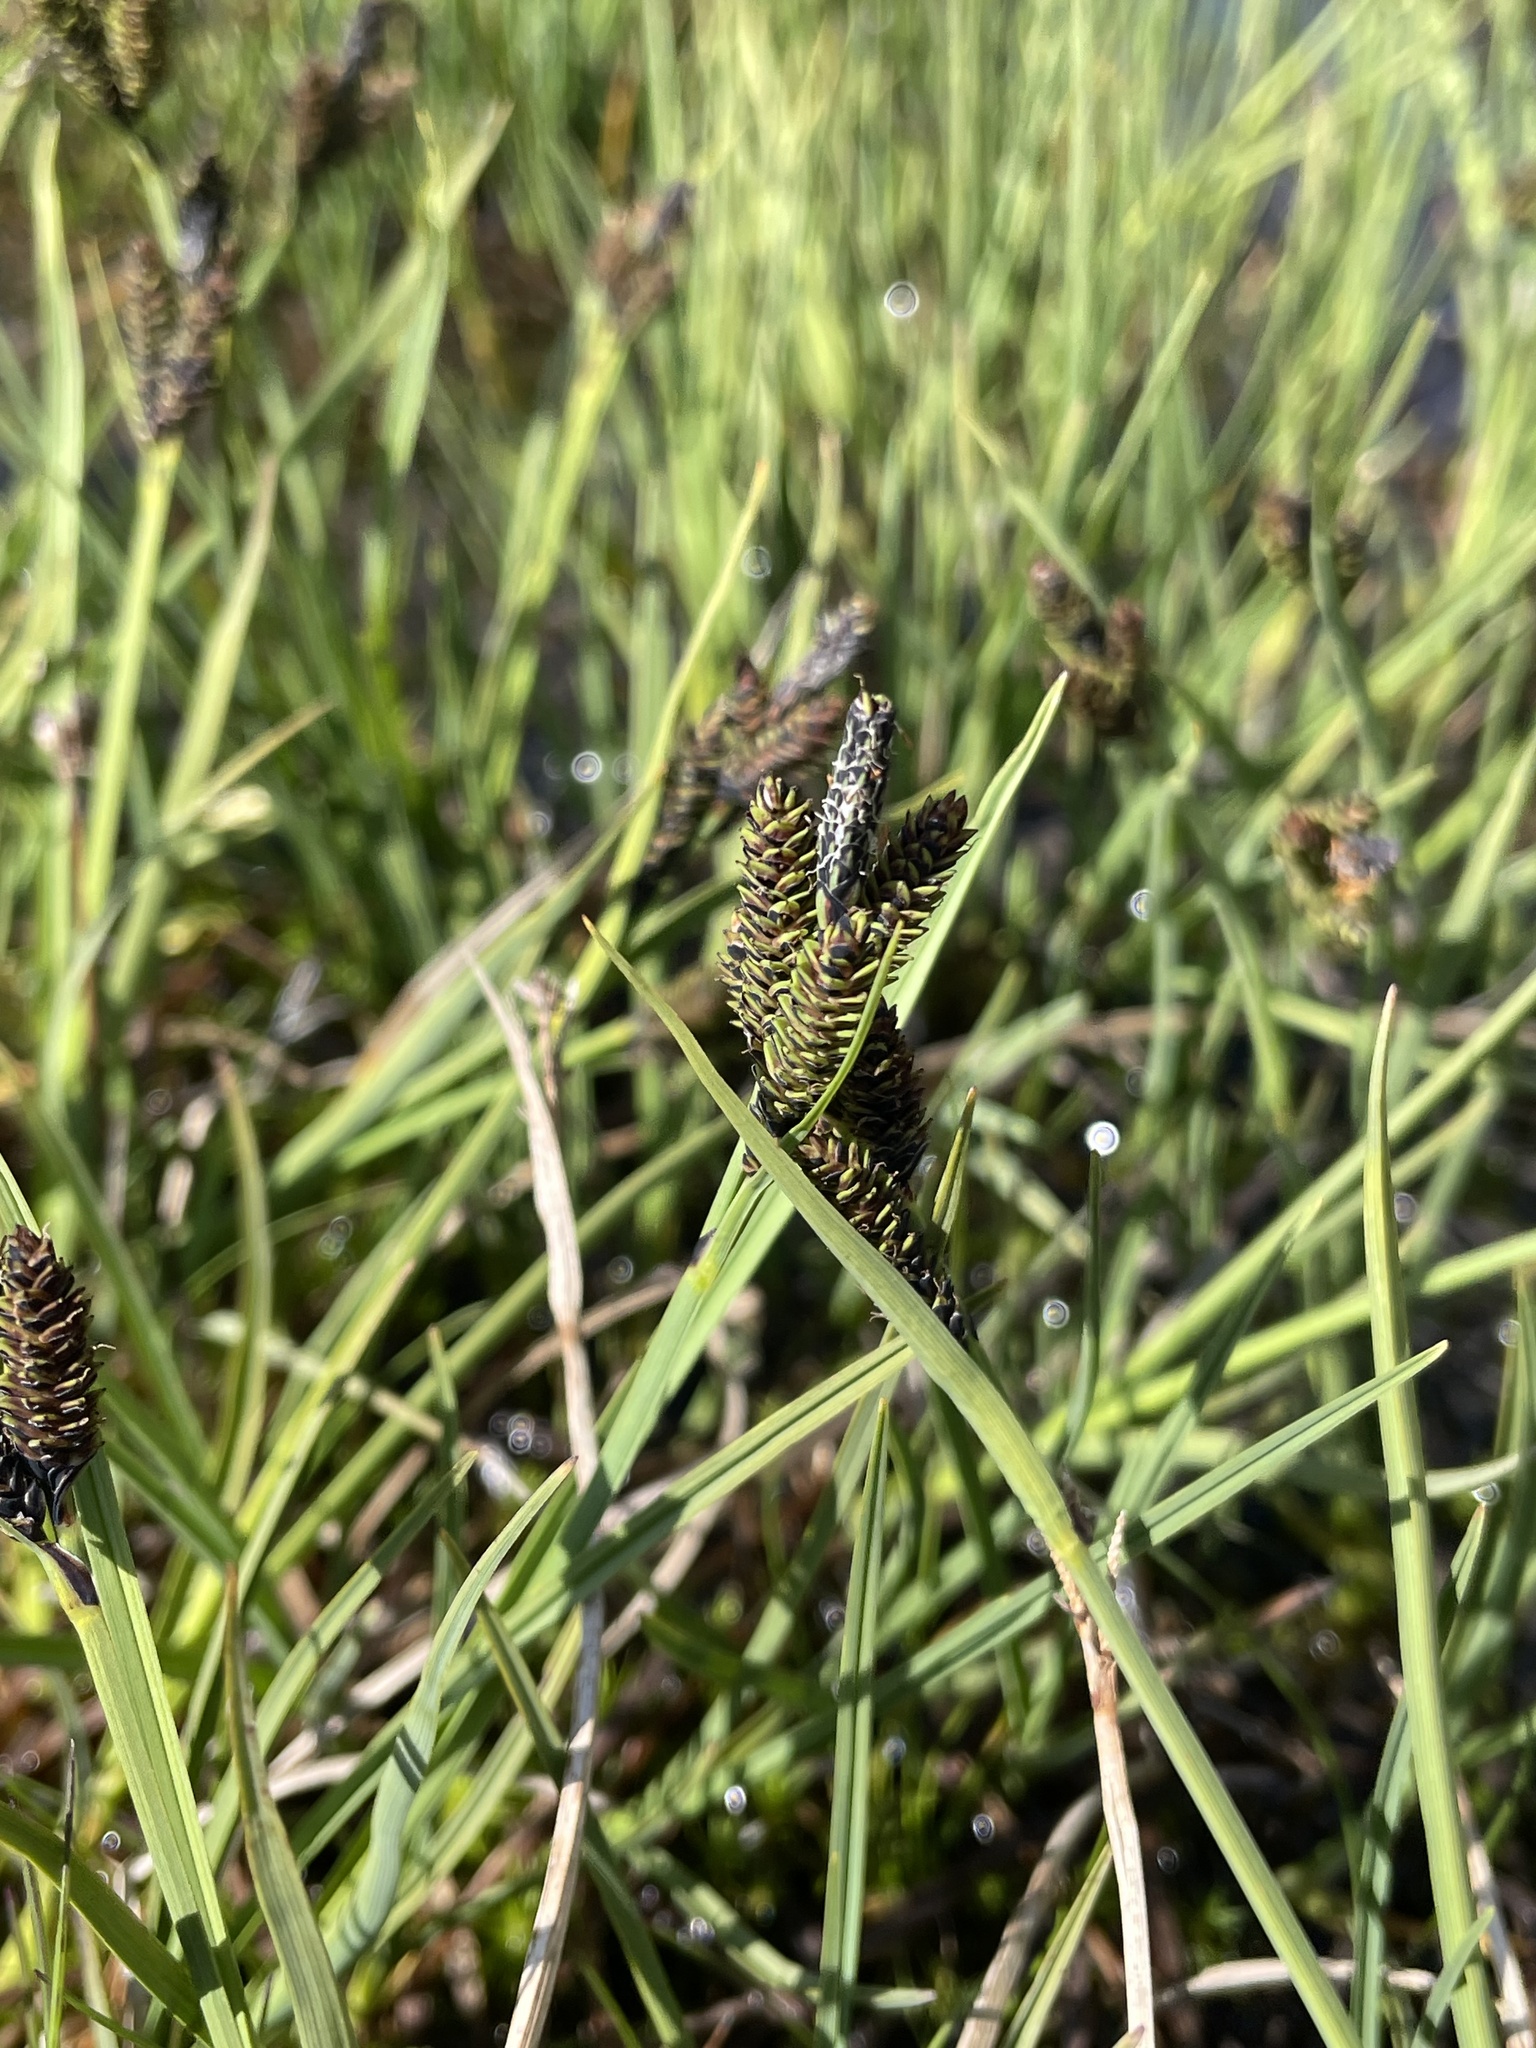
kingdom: Plantae
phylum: Tracheophyta
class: Liliopsida
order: Poales
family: Cyperaceae
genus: Carex
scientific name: Carex hypandra
